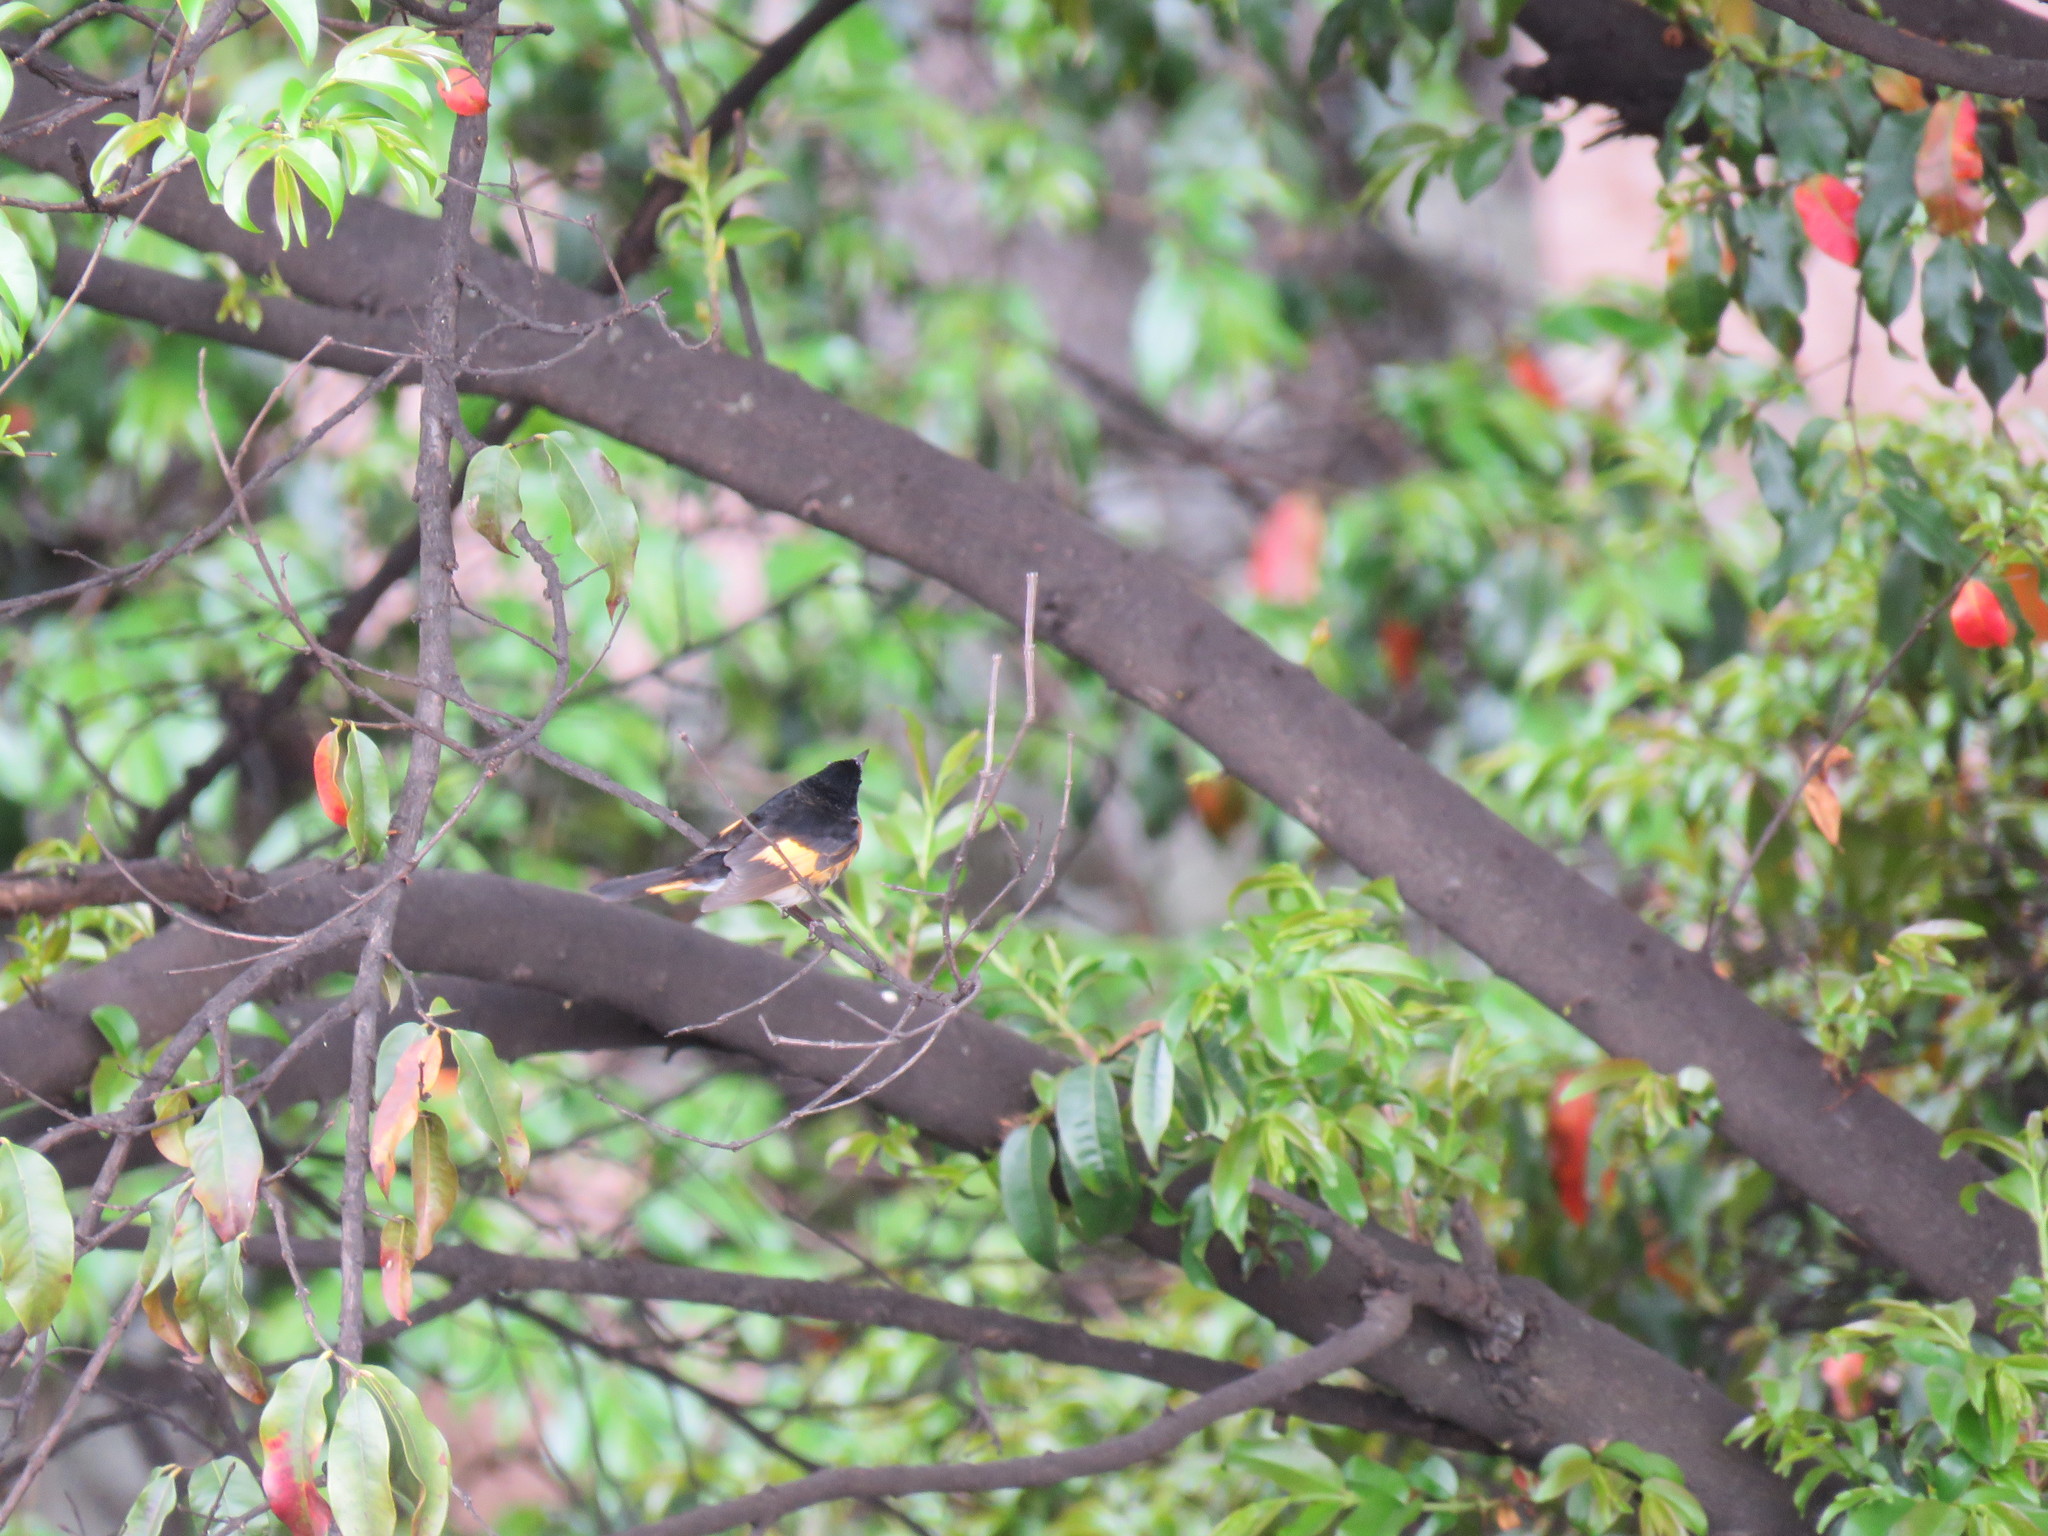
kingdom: Animalia
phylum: Chordata
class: Aves
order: Passeriformes
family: Parulidae
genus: Setophaga
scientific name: Setophaga ruticilla
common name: American redstart
